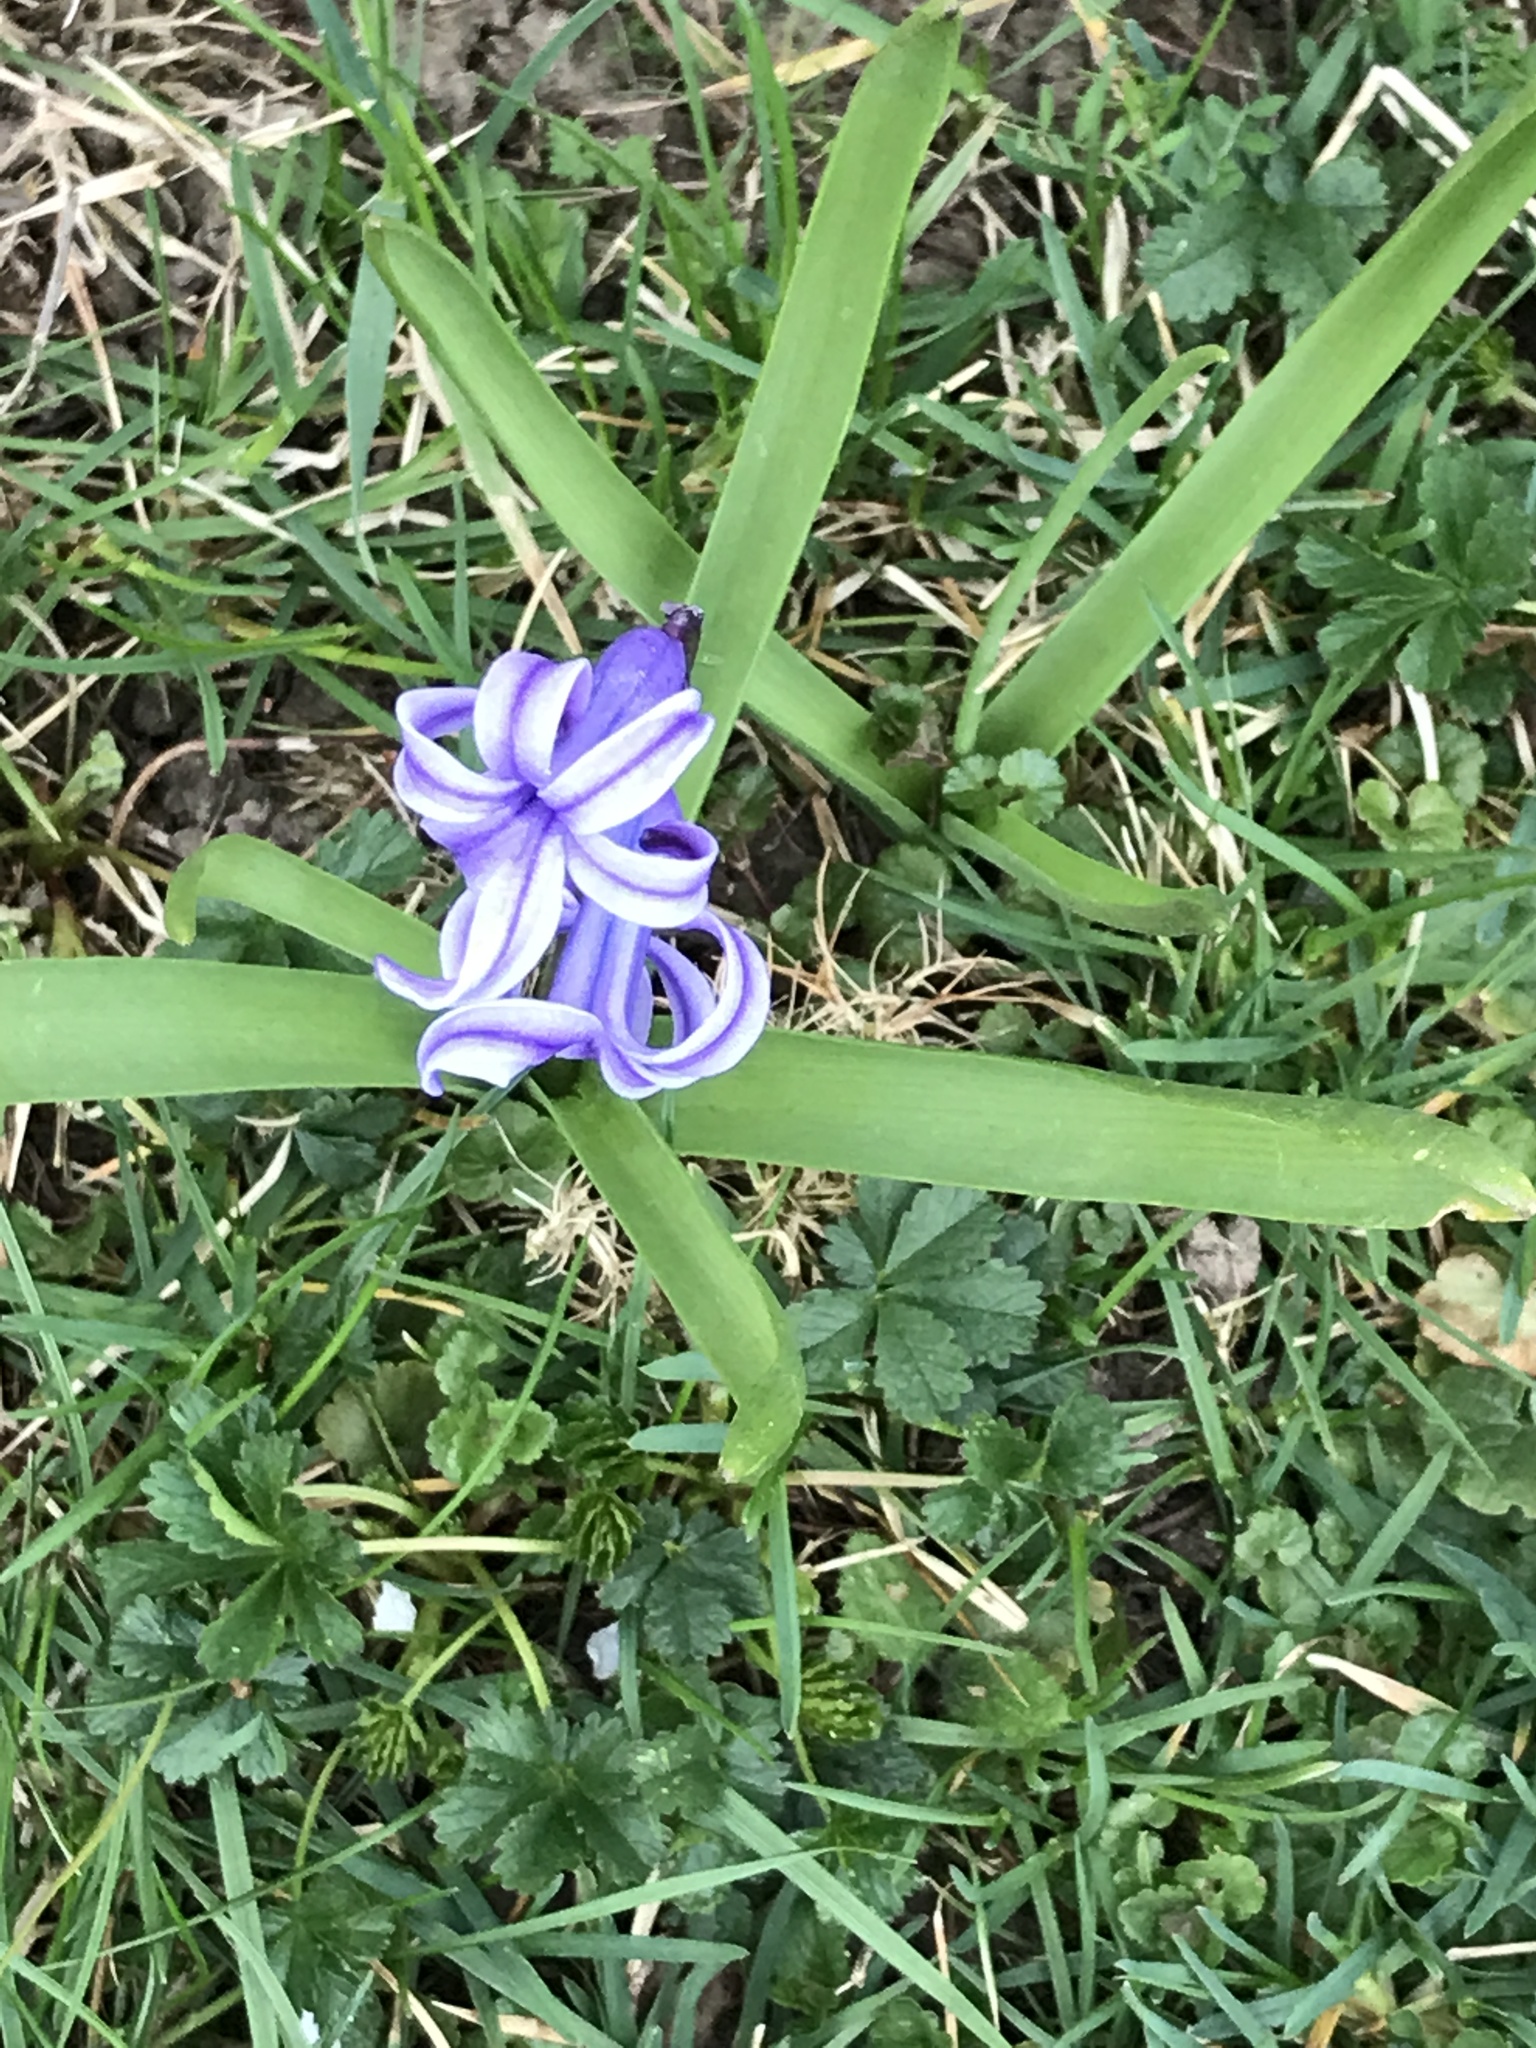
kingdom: Plantae
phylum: Tracheophyta
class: Liliopsida
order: Asparagales
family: Asparagaceae
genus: Hyacinthus
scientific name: Hyacinthus orientalis
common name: Hyacinth
